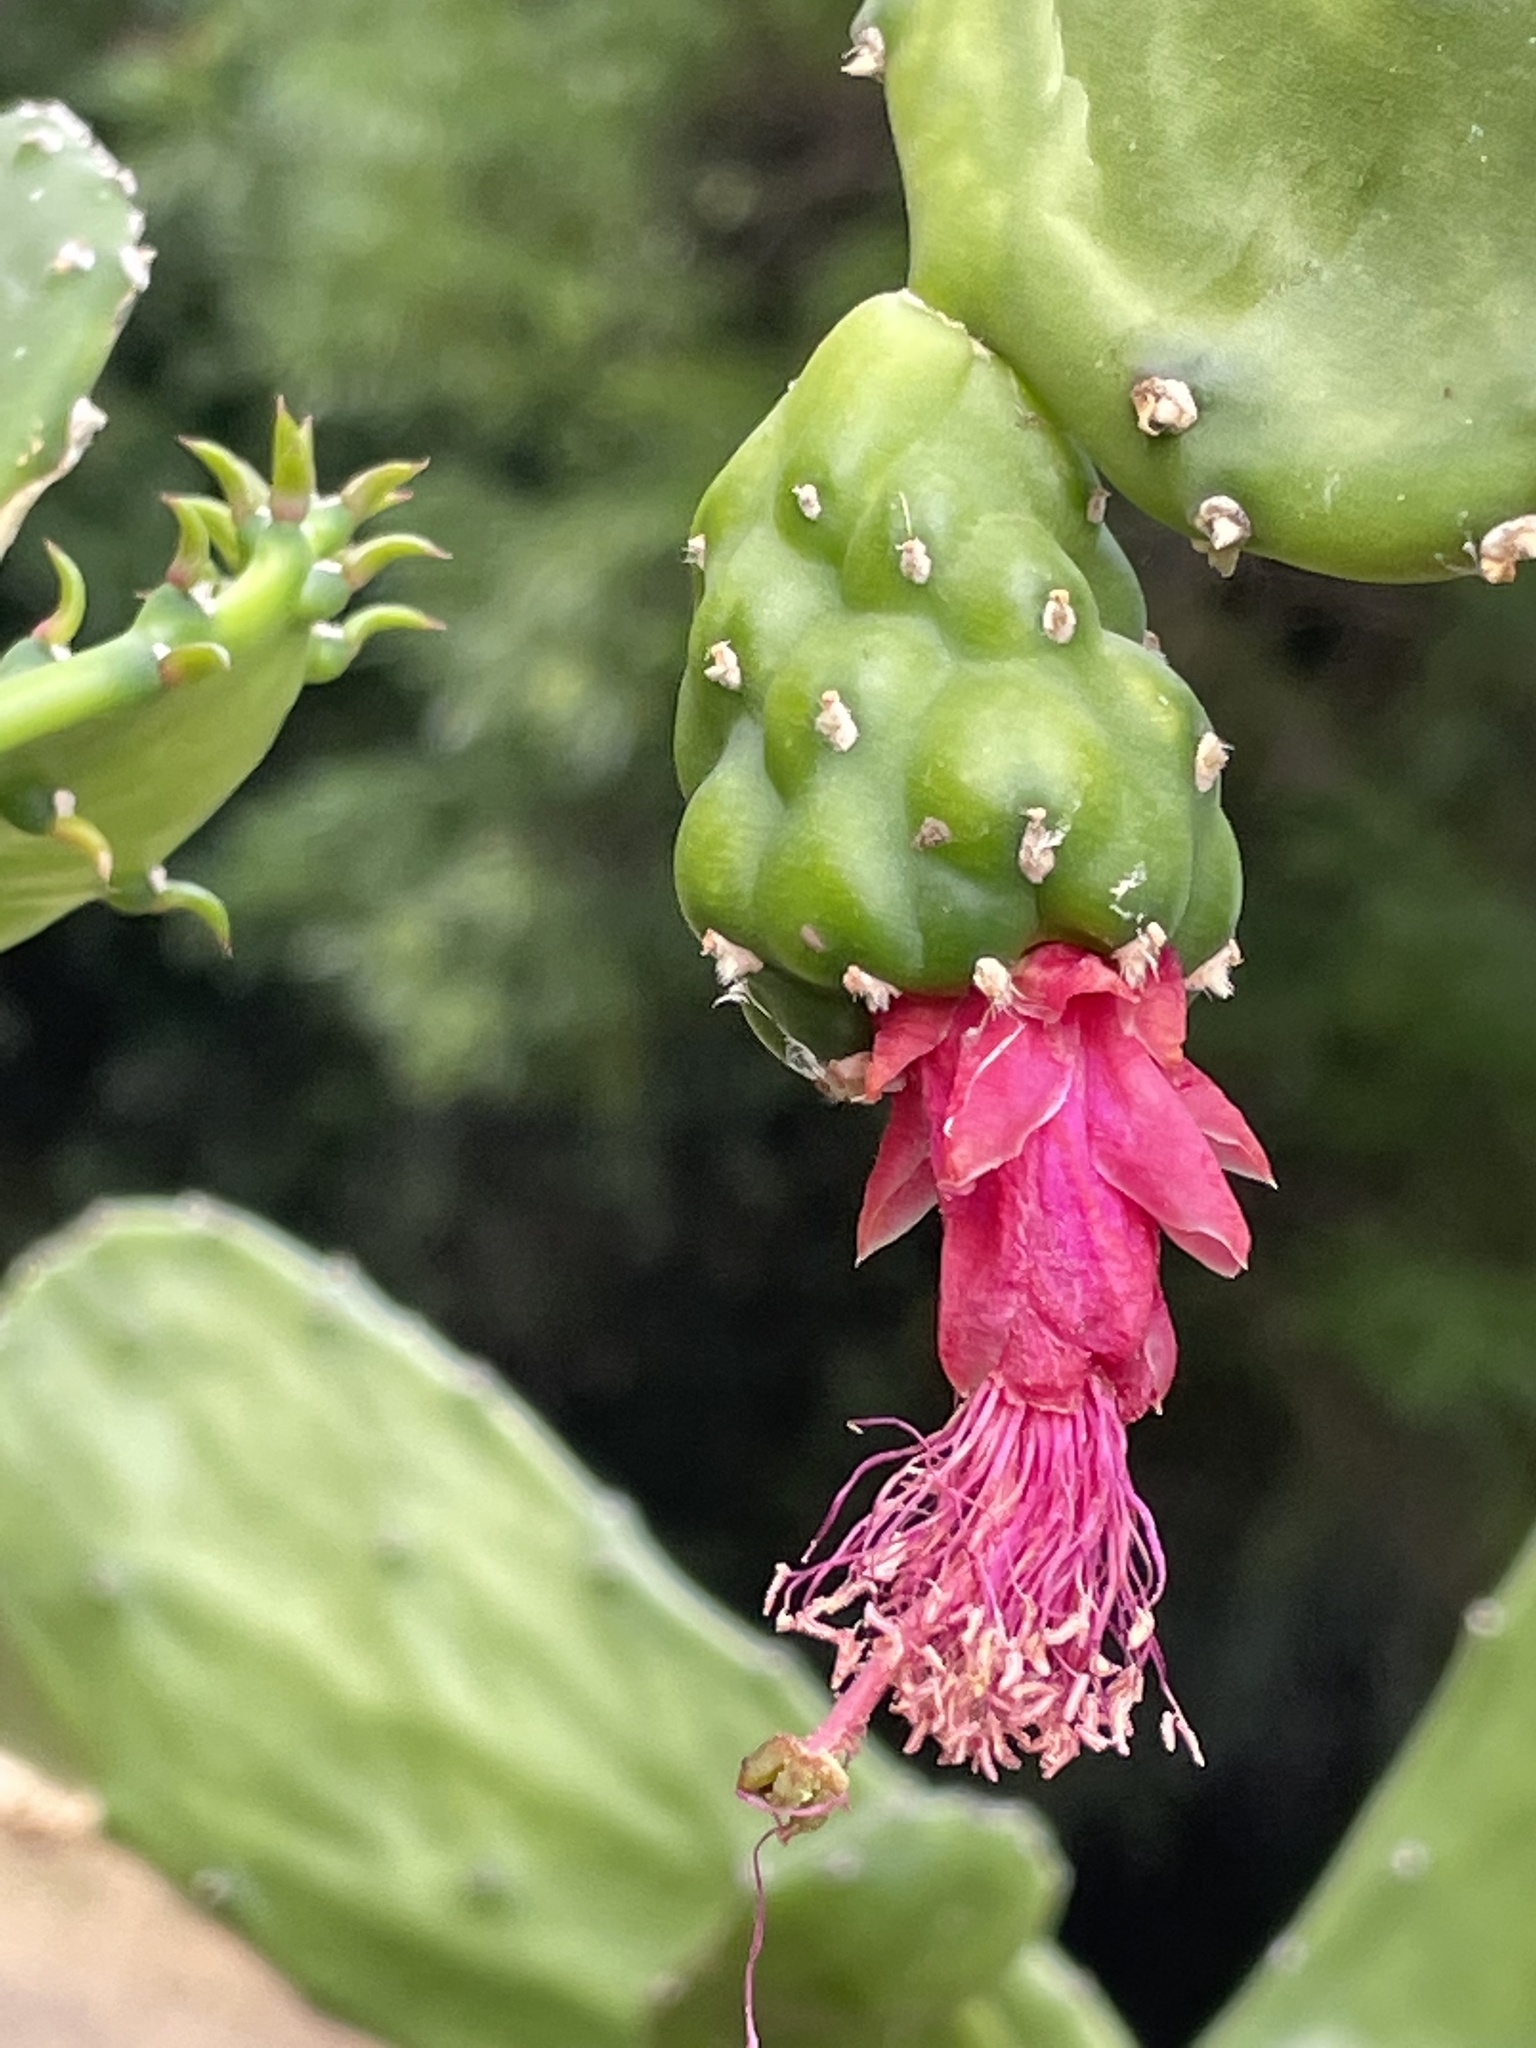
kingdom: Plantae
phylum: Tracheophyta
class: Magnoliopsida
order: Caryophyllales
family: Cactaceae
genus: Opuntia
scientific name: Opuntia hyptiacantha
